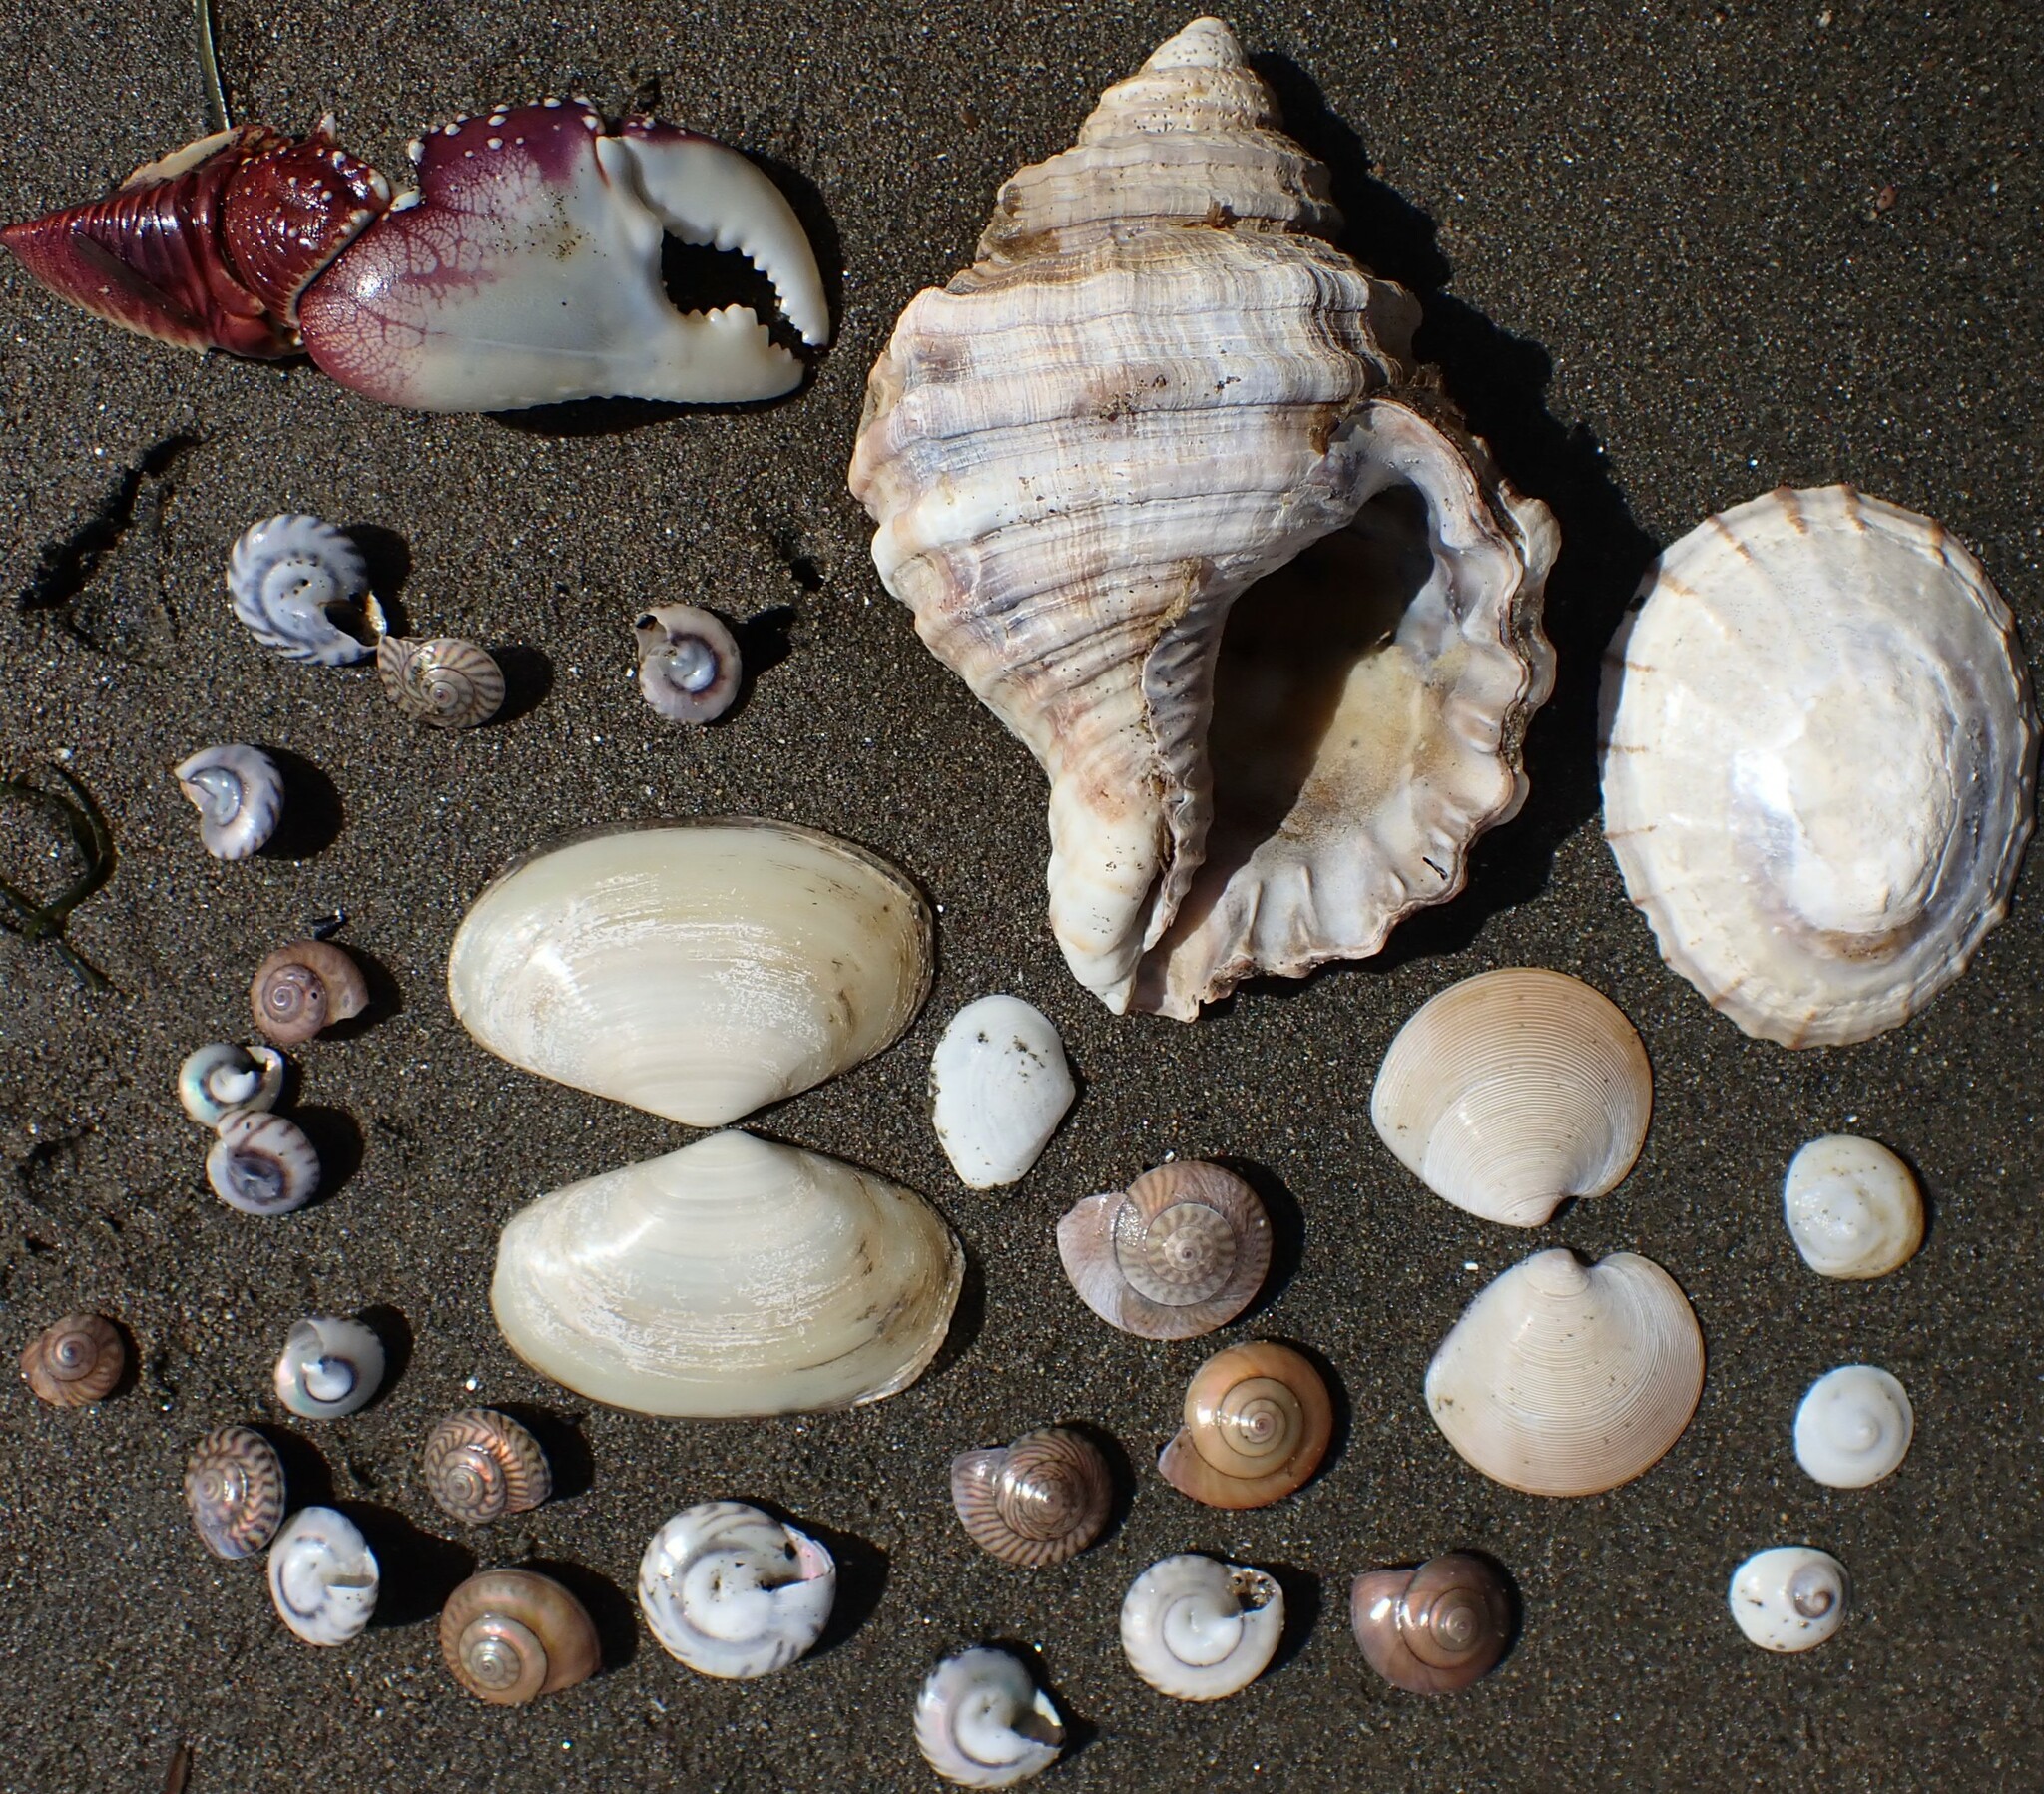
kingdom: Animalia
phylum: Mollusca
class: Gastropoda
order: Littorinimorpha
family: Cymatiidae
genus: Monoplex
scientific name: Monoplex parthenopeus
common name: Giant triton
